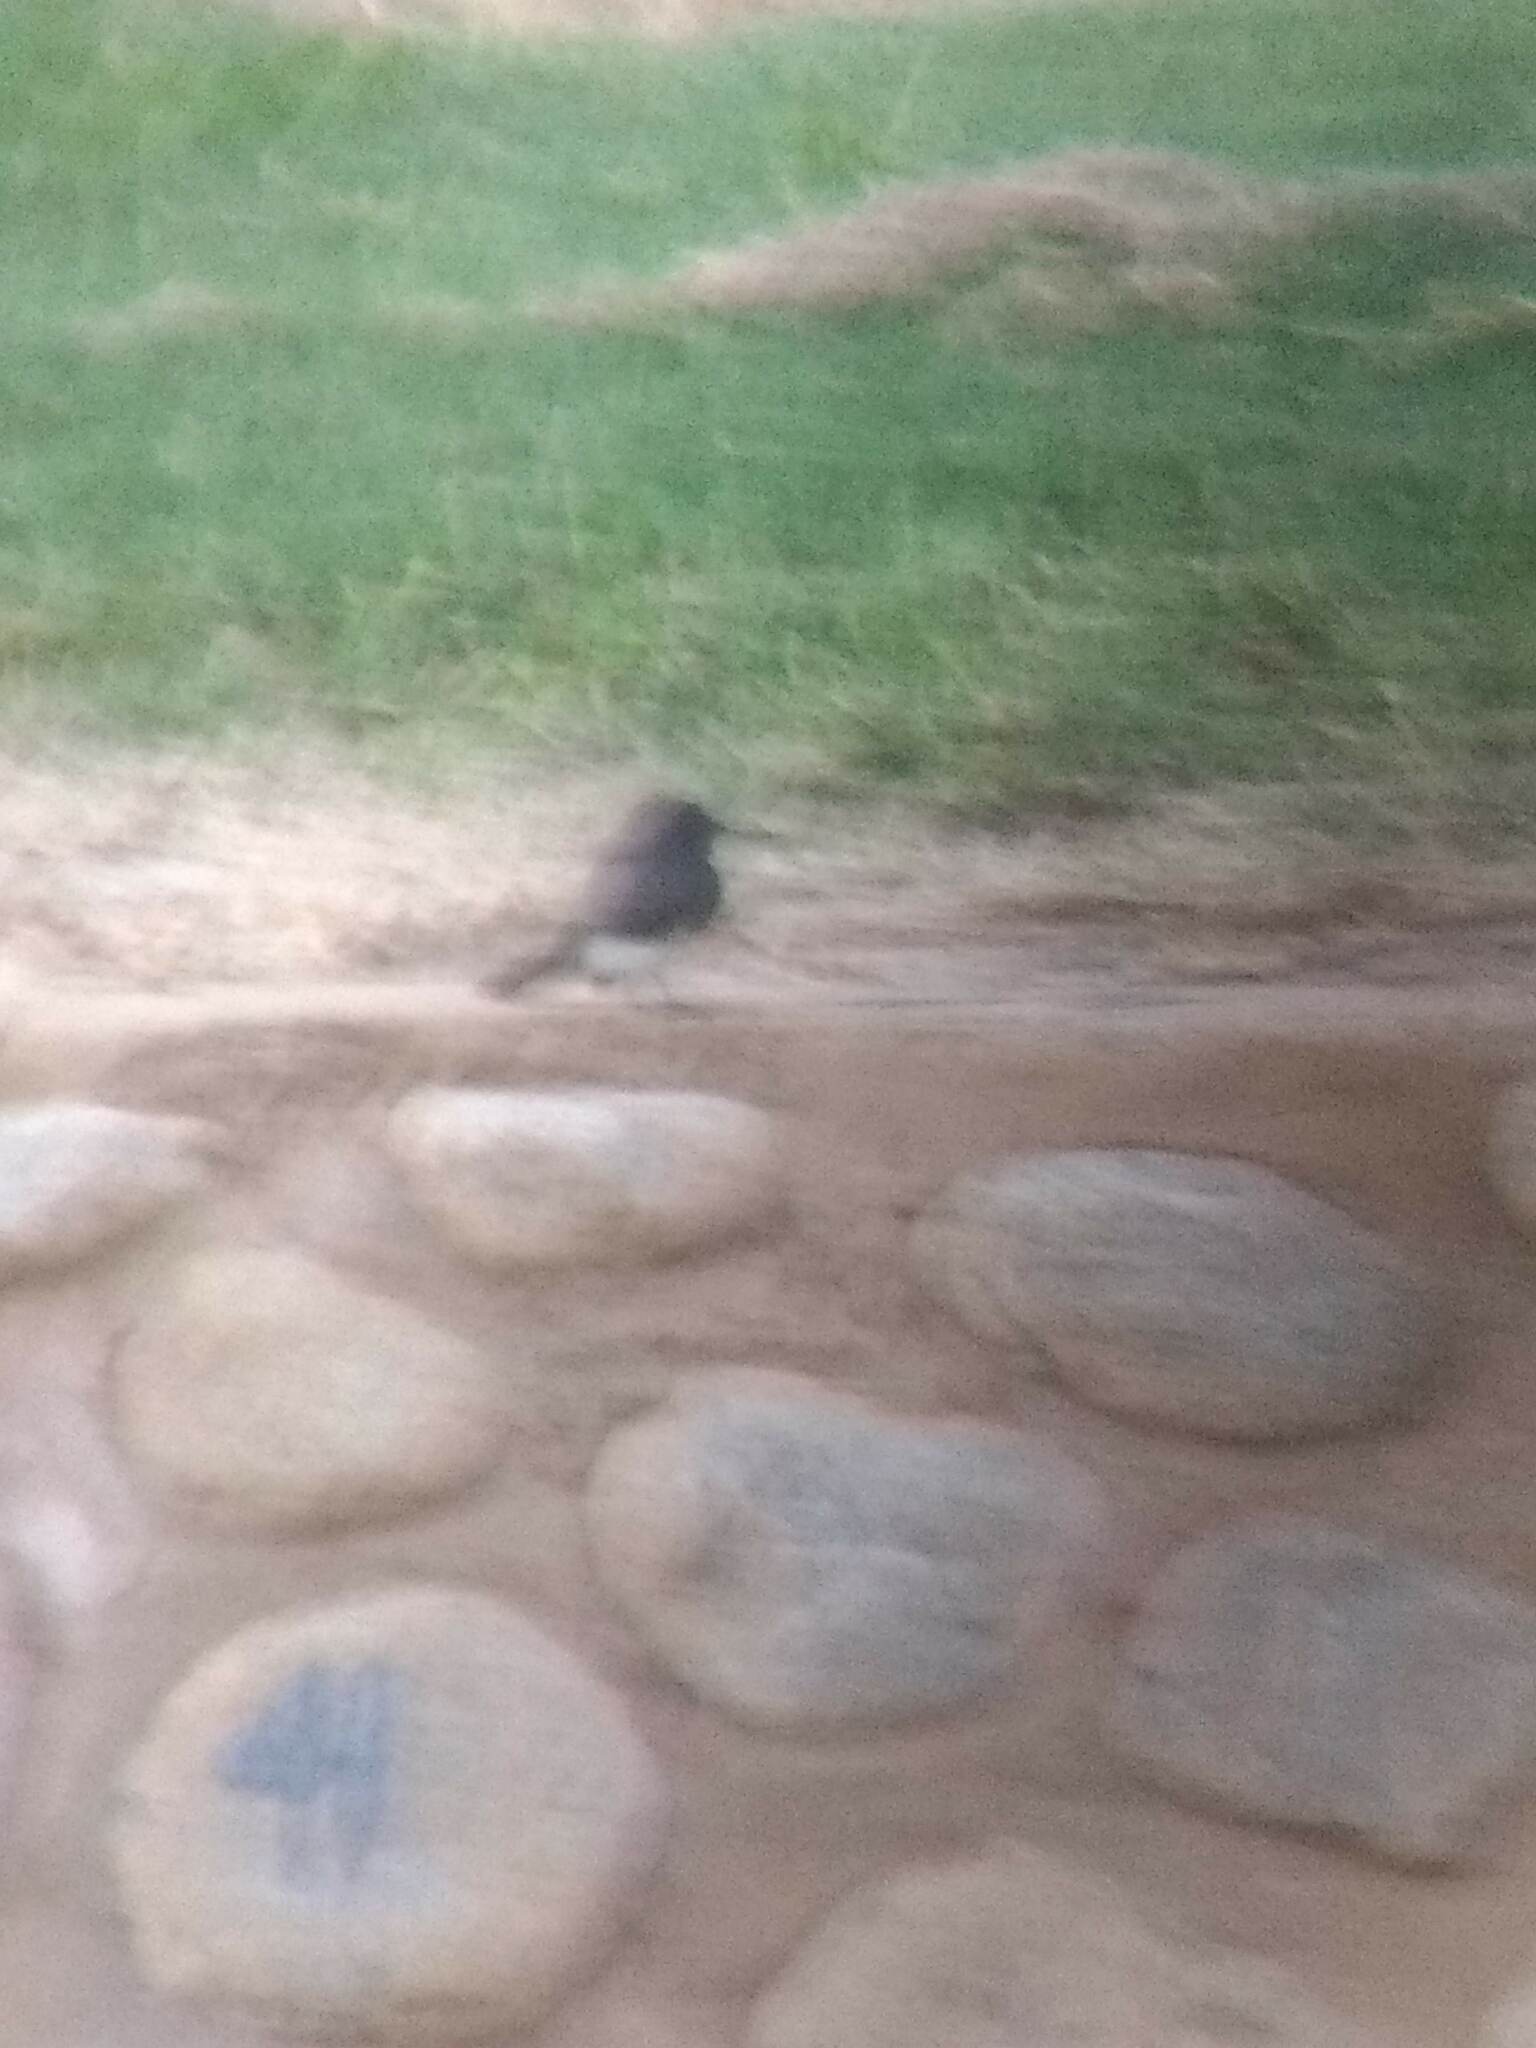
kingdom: Animalia
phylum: Chordata
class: Aves
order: Passeriformes
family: Tyrannidae
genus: Sayornis
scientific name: Sayornis nigricans
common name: Black phoebe
